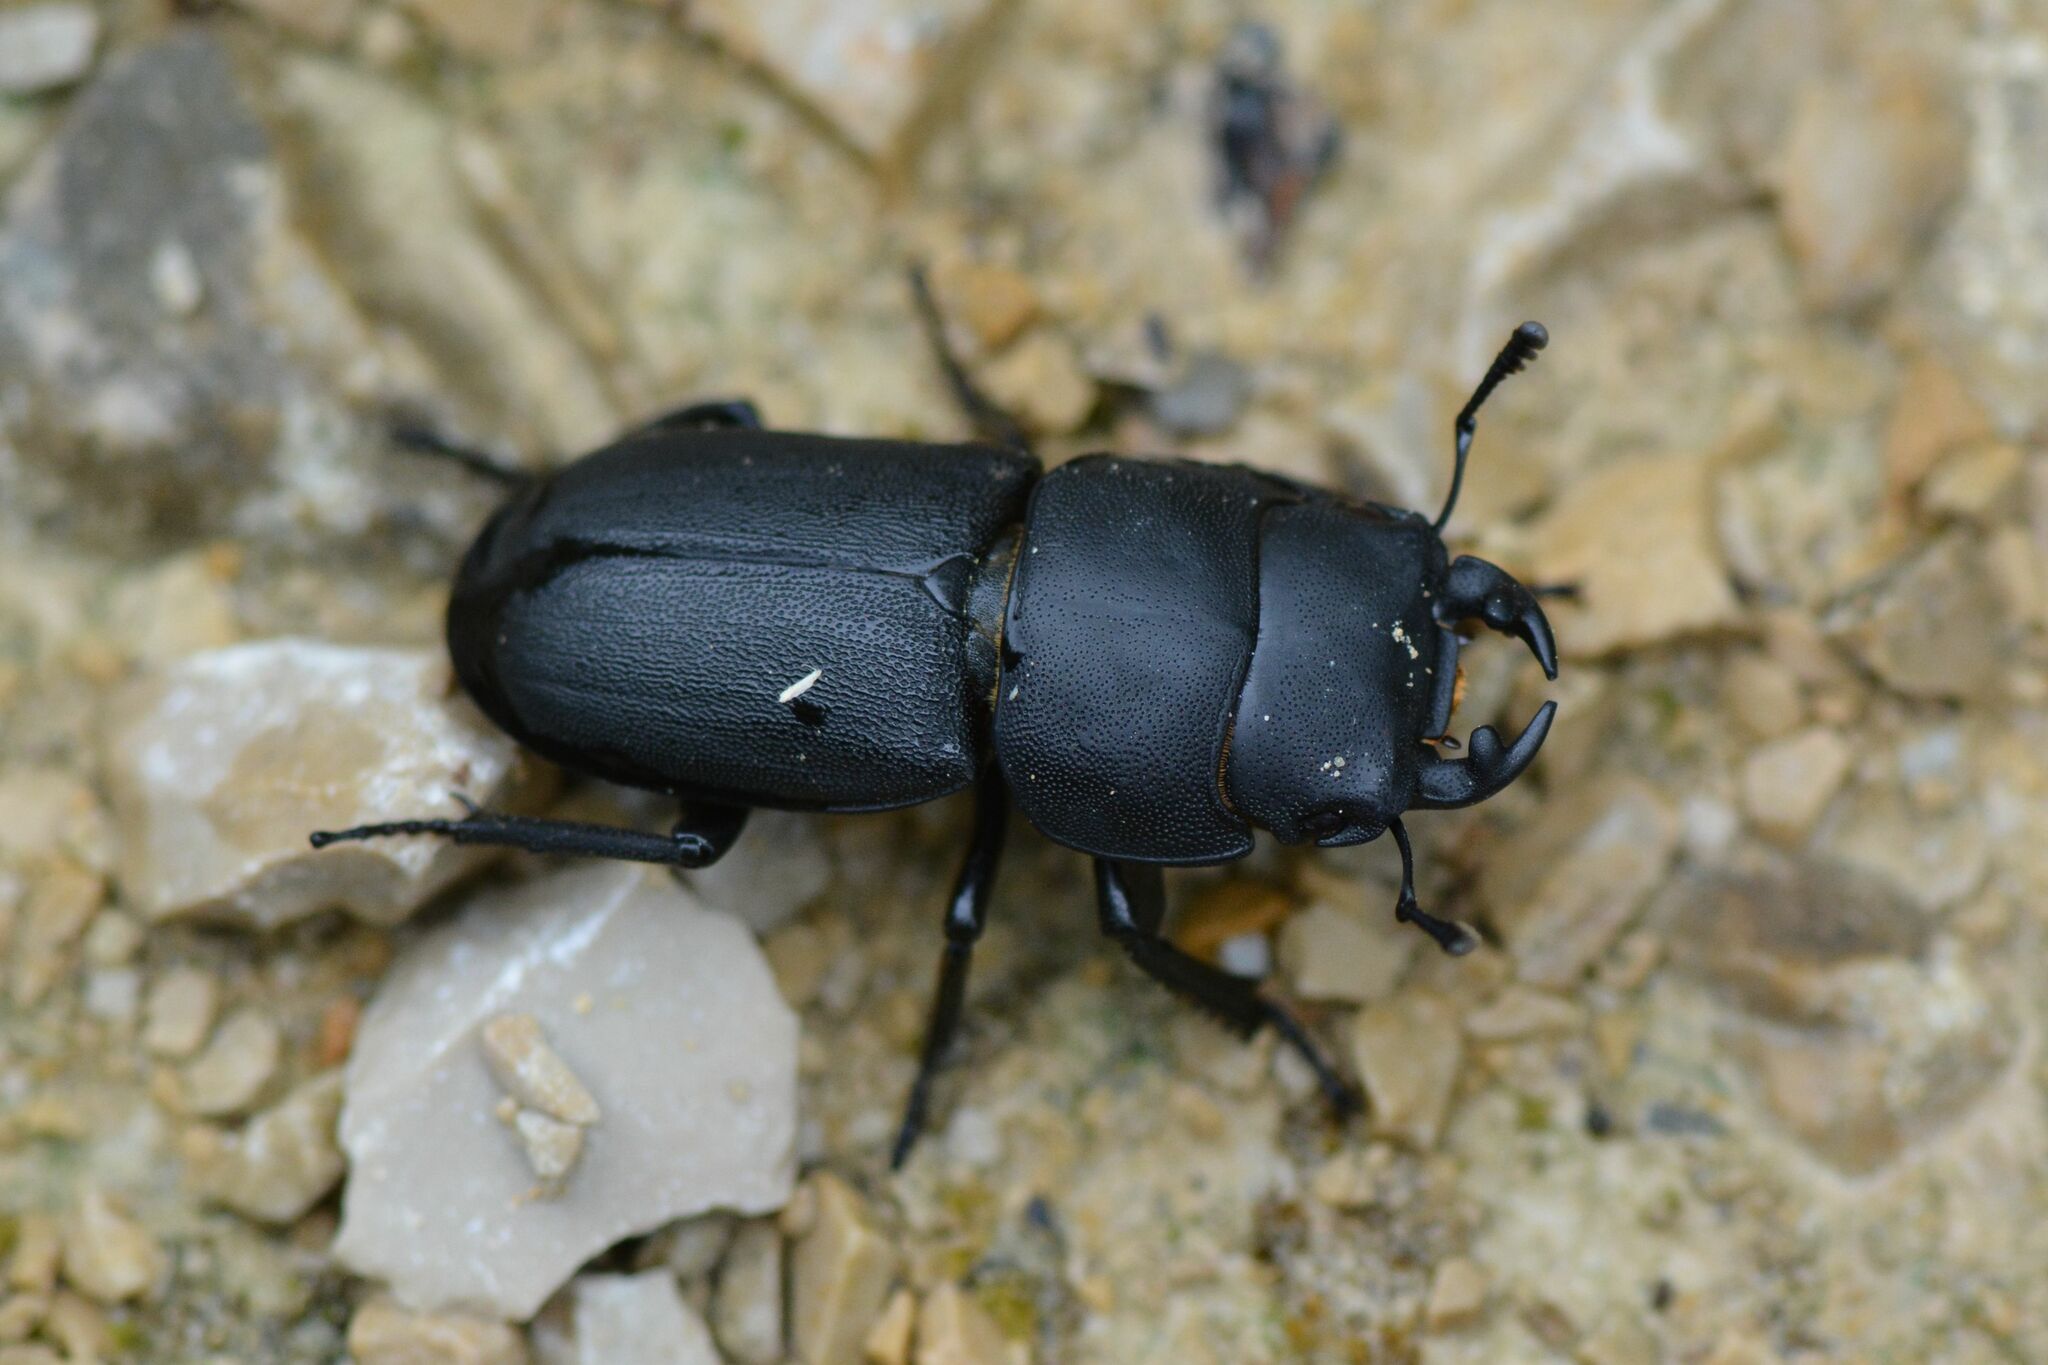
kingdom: Animalia
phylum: Arthropoda
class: Insecta
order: Coleoptera
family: Lucanidae
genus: Dorcus
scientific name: Dorcus parallelipipedus
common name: Lesser stag beetle
